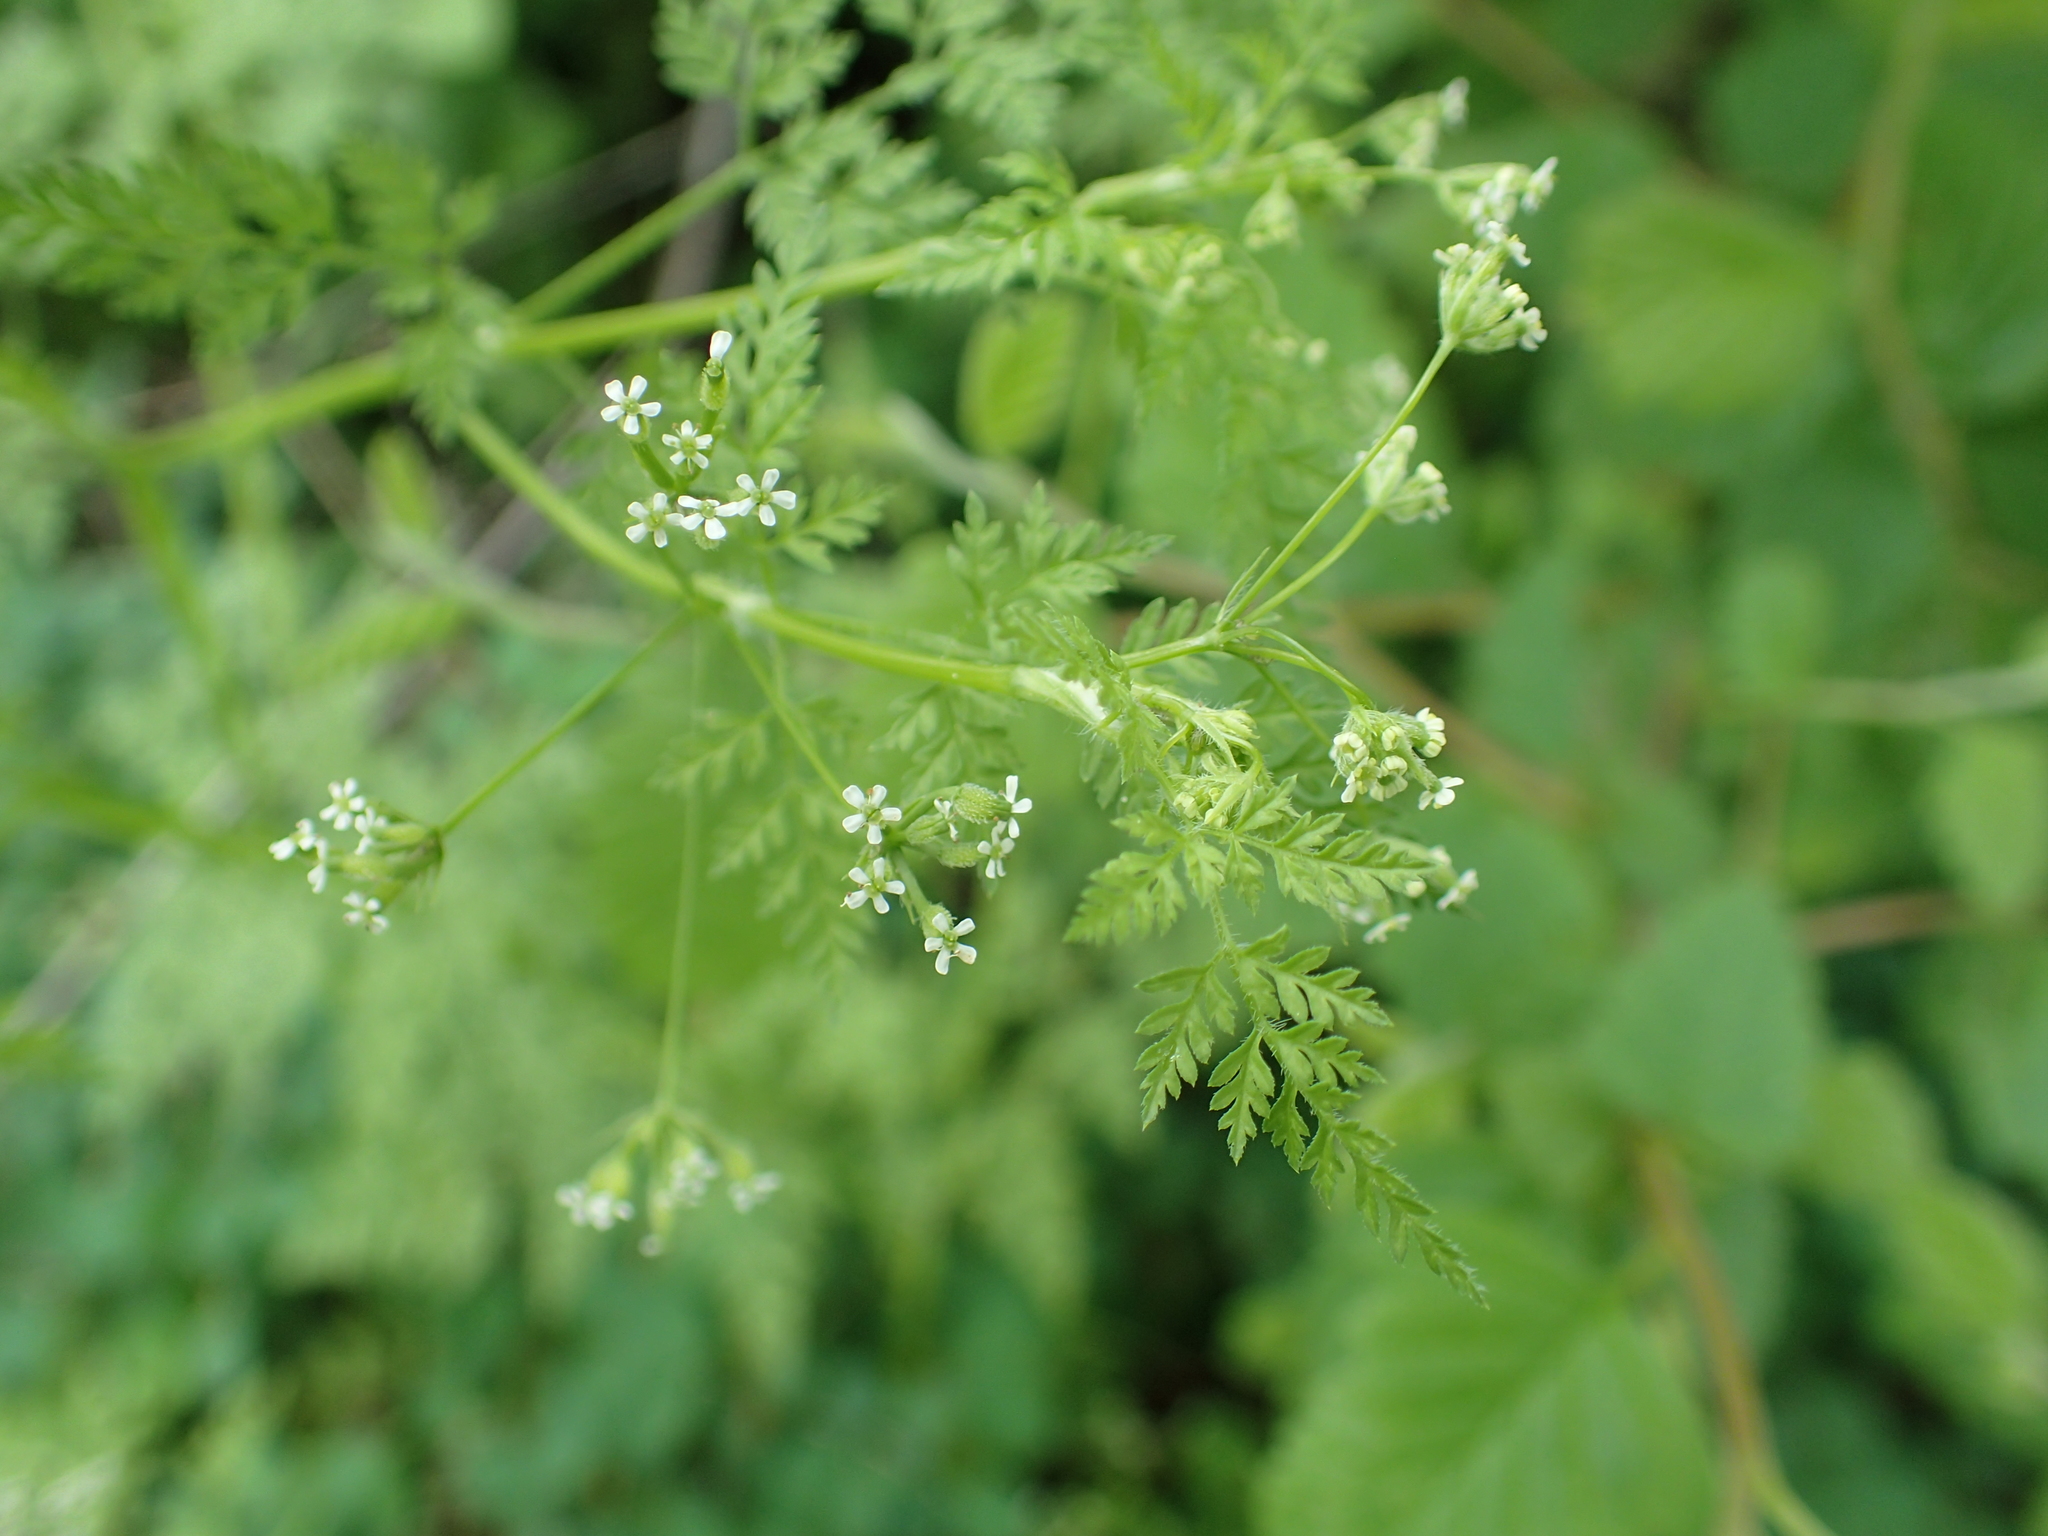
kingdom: Plantae
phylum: Tracheophyta
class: Magnoliopsida
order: Apiales
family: Apiaceae
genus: Anthriscus
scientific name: Anthriscus caucalis
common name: Bur chervil
